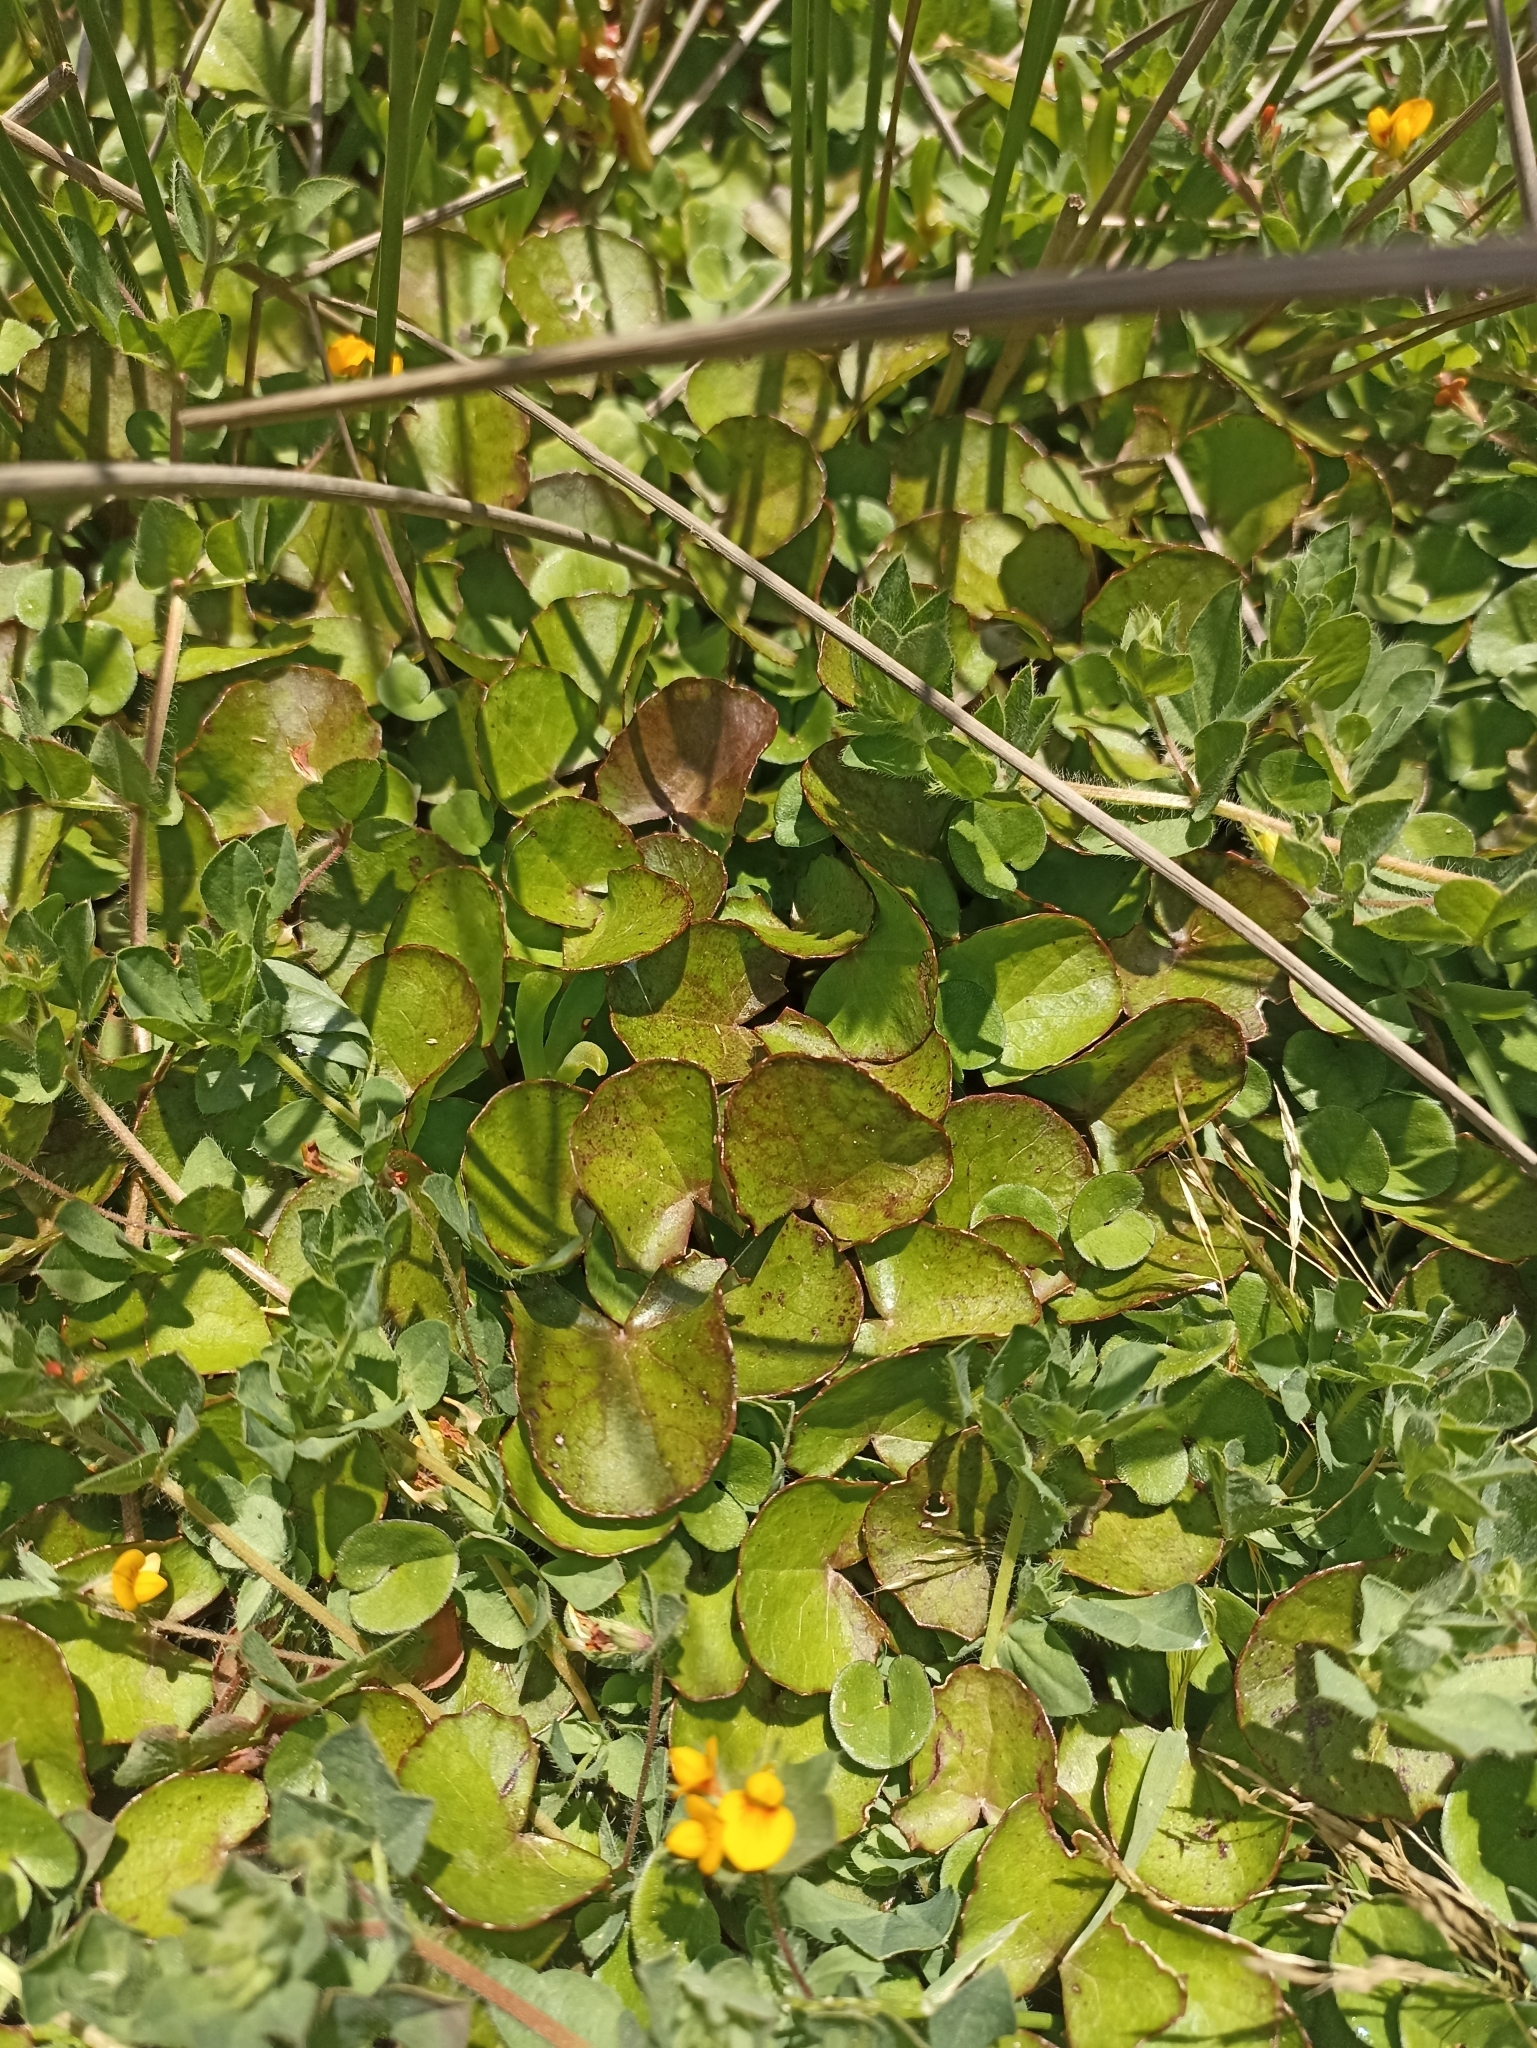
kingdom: Plantae
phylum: Tracheophyta
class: Magnoliopsida
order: Apiales
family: Apiaceae
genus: Centella
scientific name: Centella uniflora
